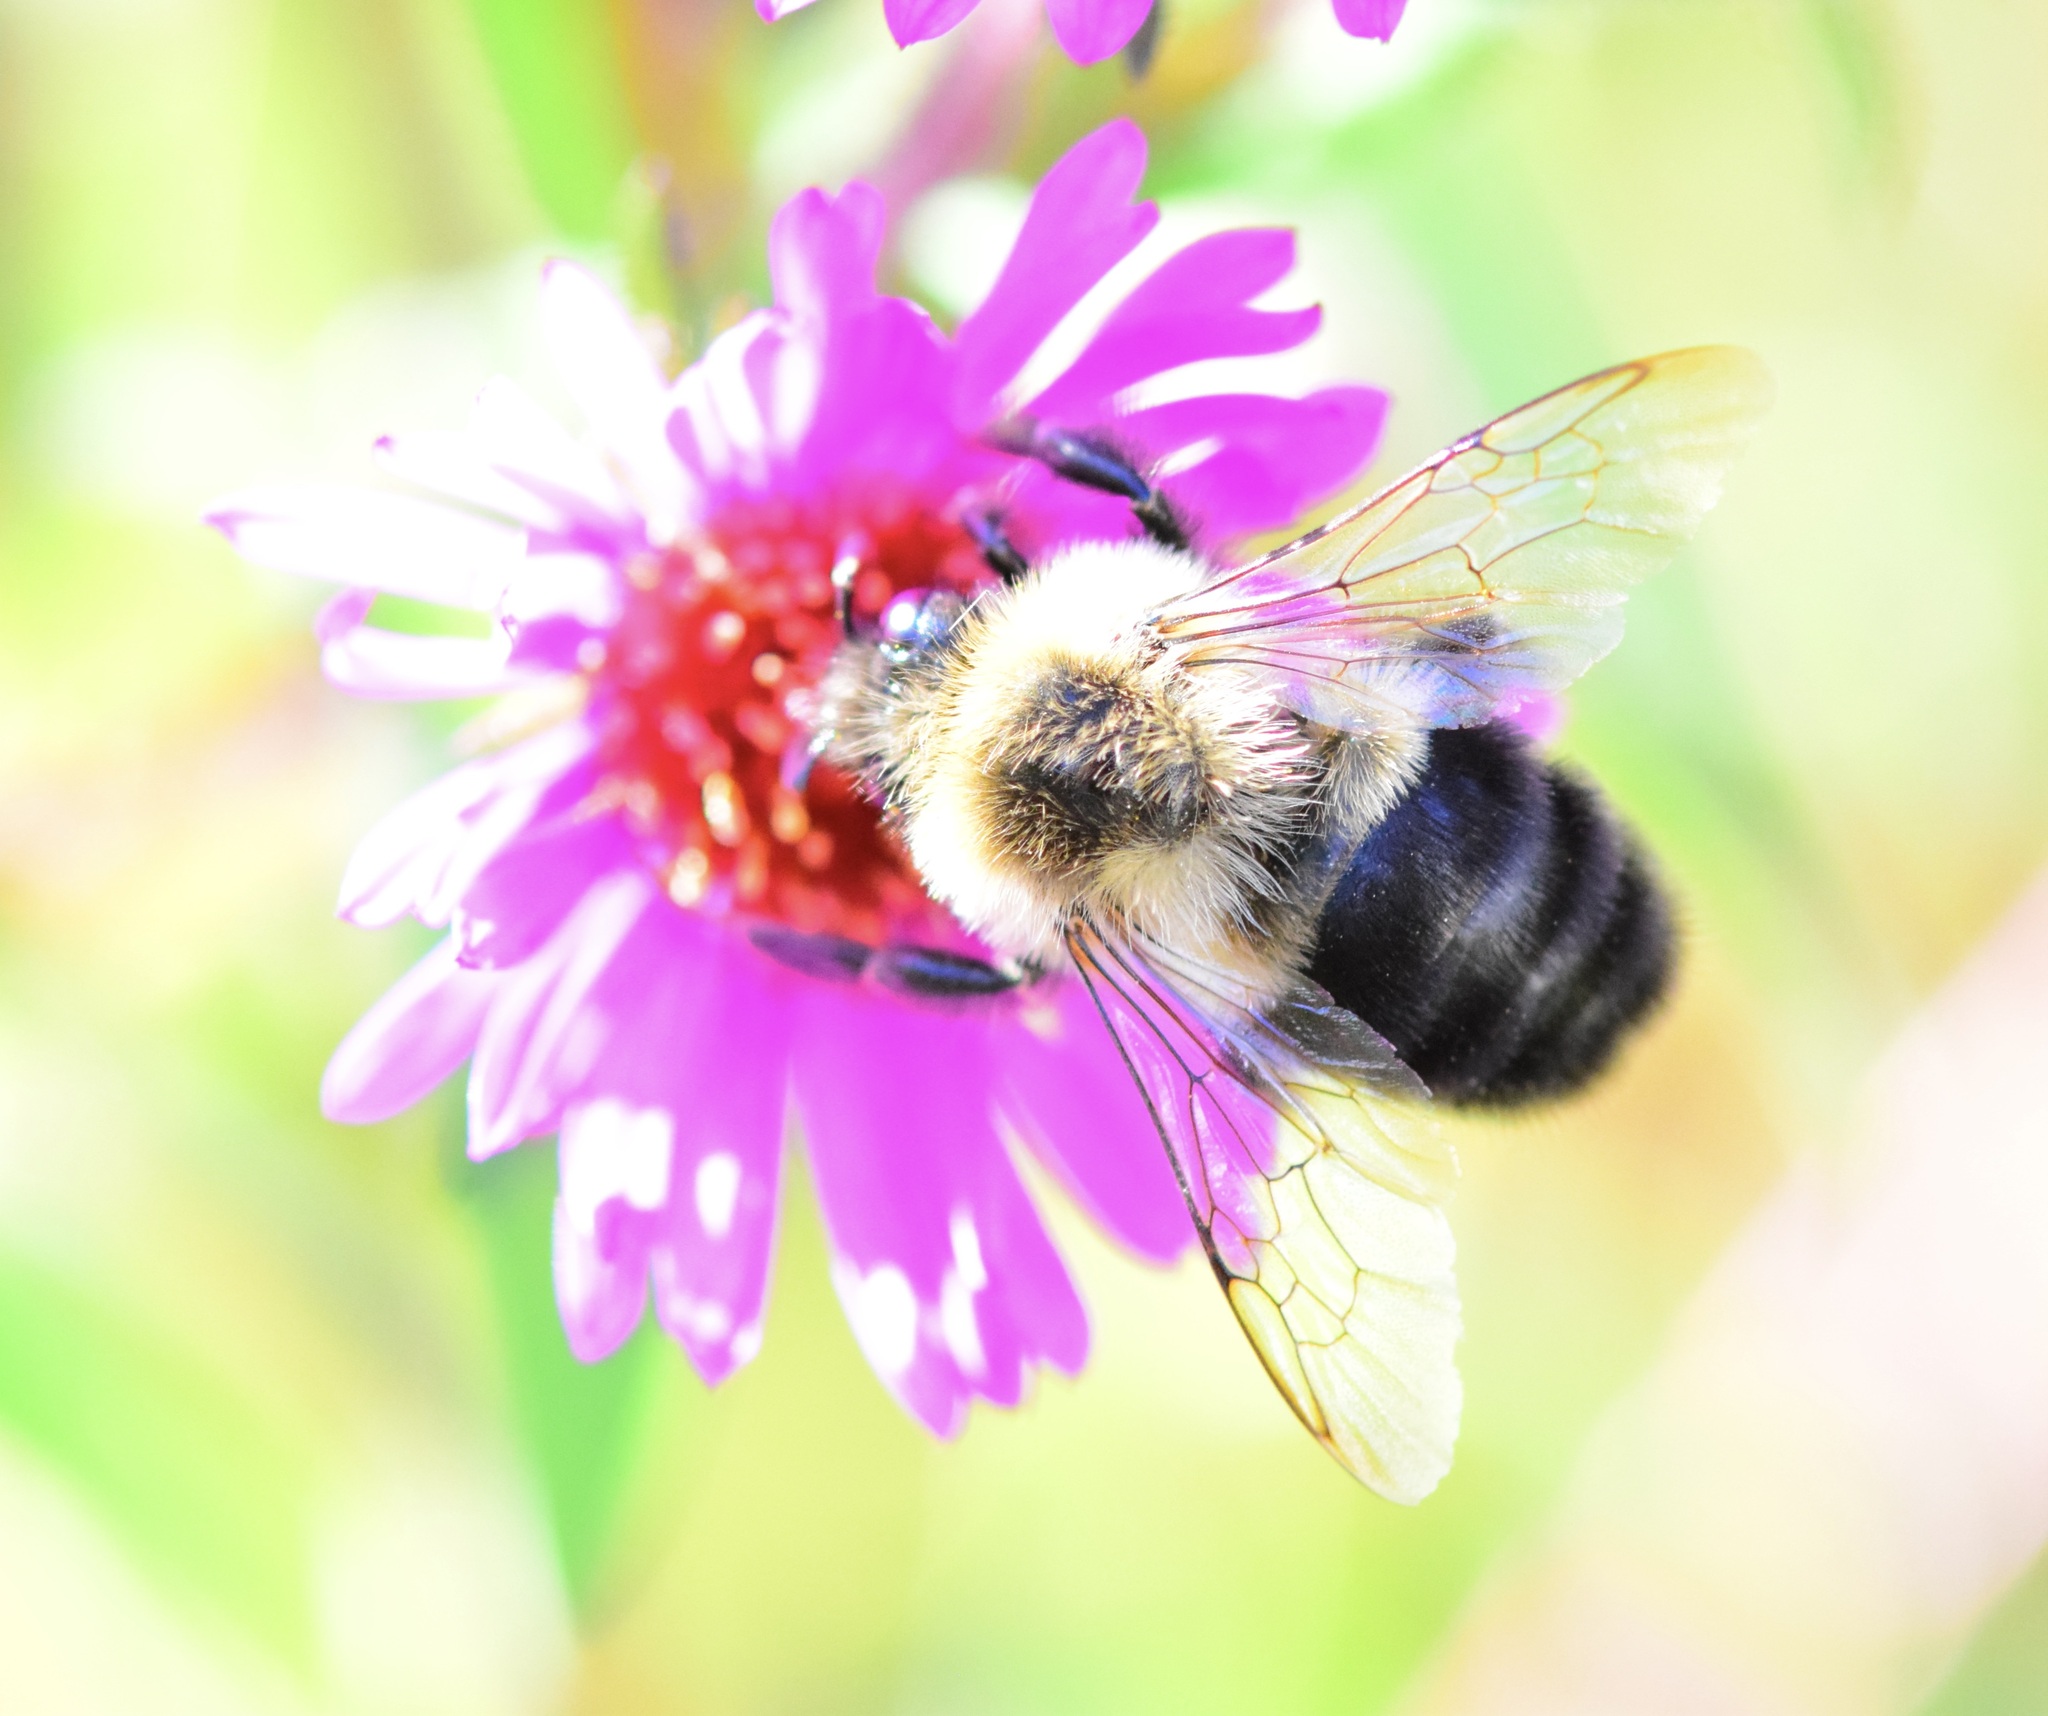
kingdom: Animalia
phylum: Arthropoda
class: Insecta
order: Hymenoptera
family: Apidae
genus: Bombus
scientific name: Bombus impatiens
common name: Common eastern bumble bee
